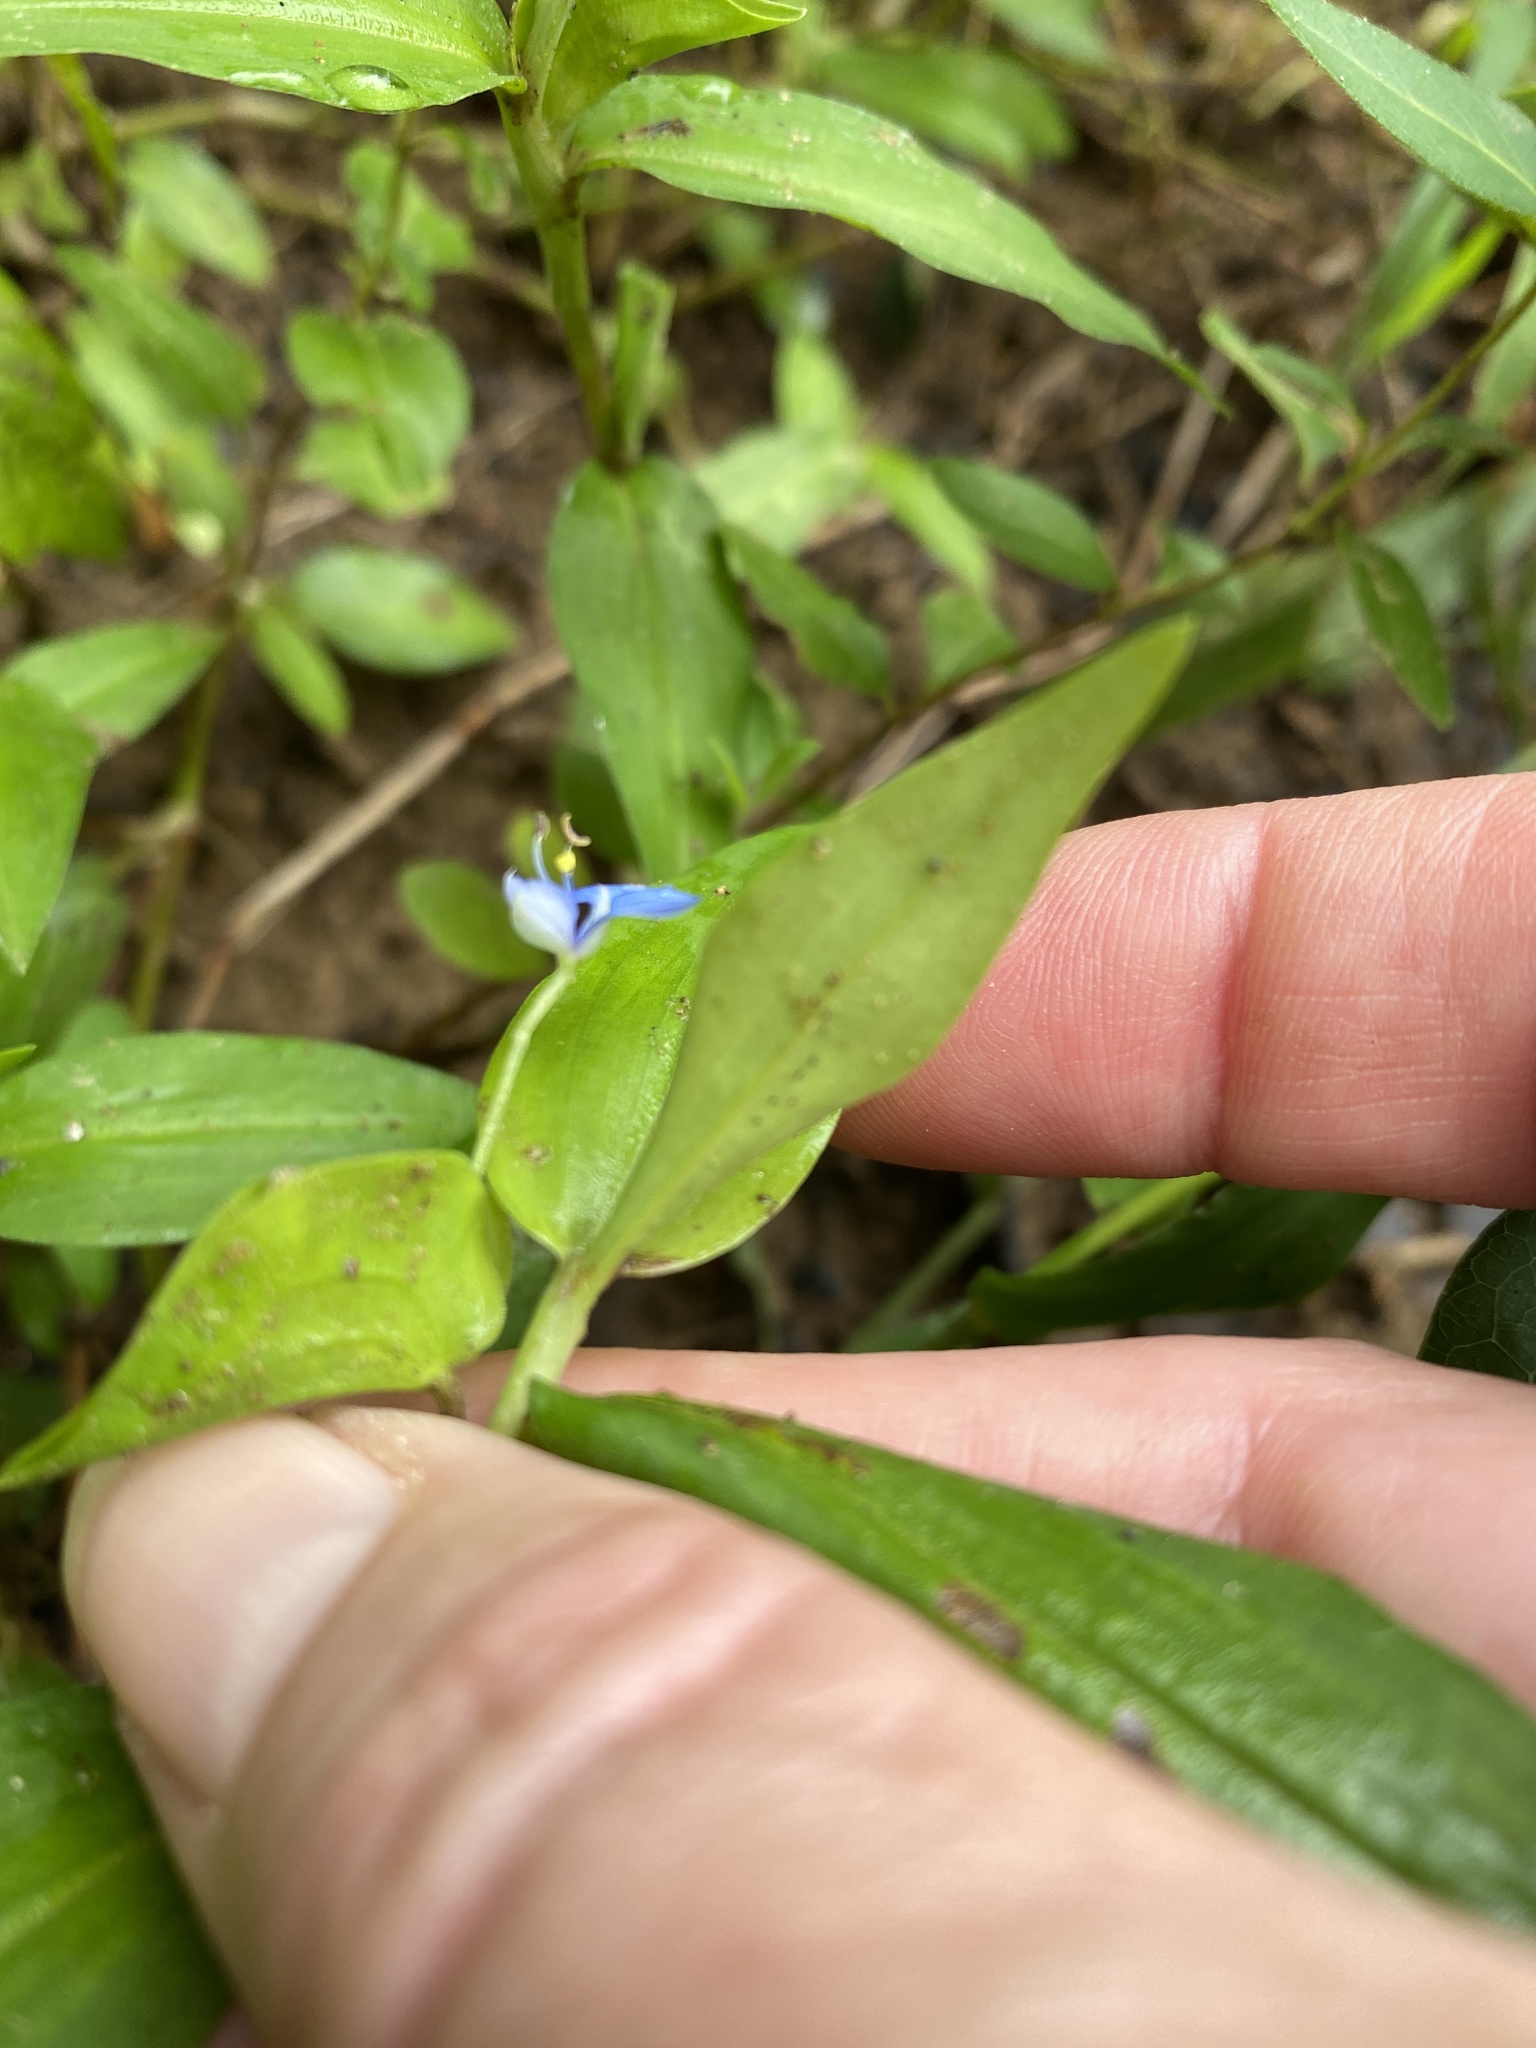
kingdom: Plantae
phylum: Tracheophyta
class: Liliopsida
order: Commelinales
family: Commelinaceae
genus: Commelina
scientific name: Commelina diffusa
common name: Climbing dayflower
